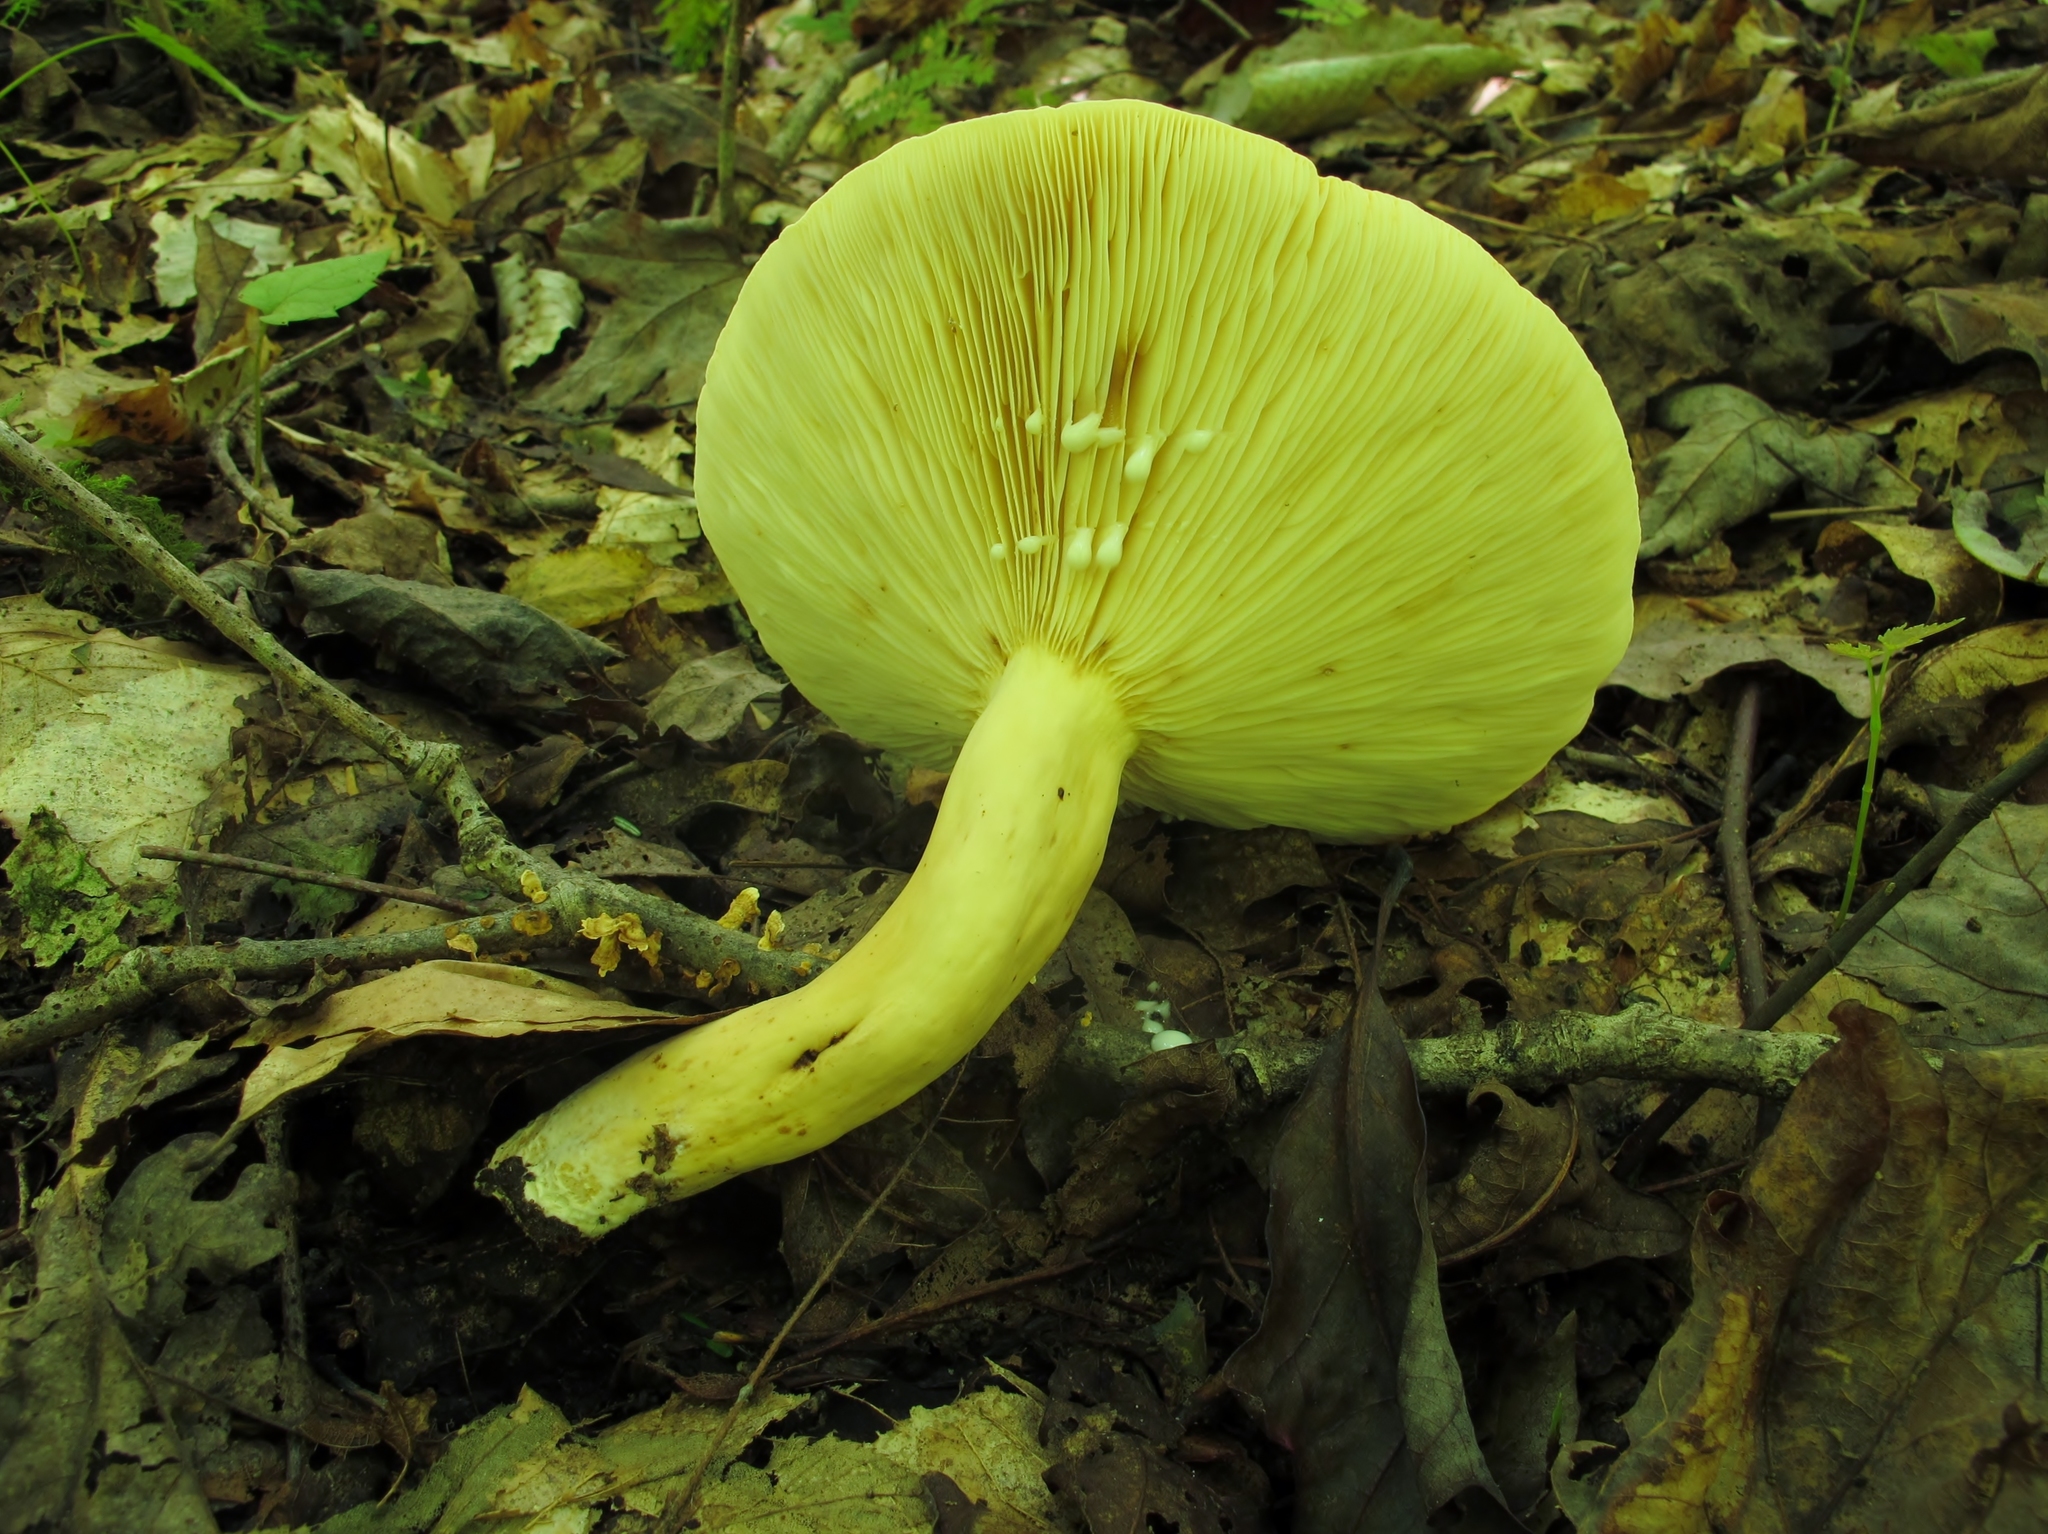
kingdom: Fungi
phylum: Basidiomycota
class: Agaricomycetes
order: Russulales
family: Russulaceae
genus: Lactifluus
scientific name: Lactifluus volemus
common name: Fishy milkcap
